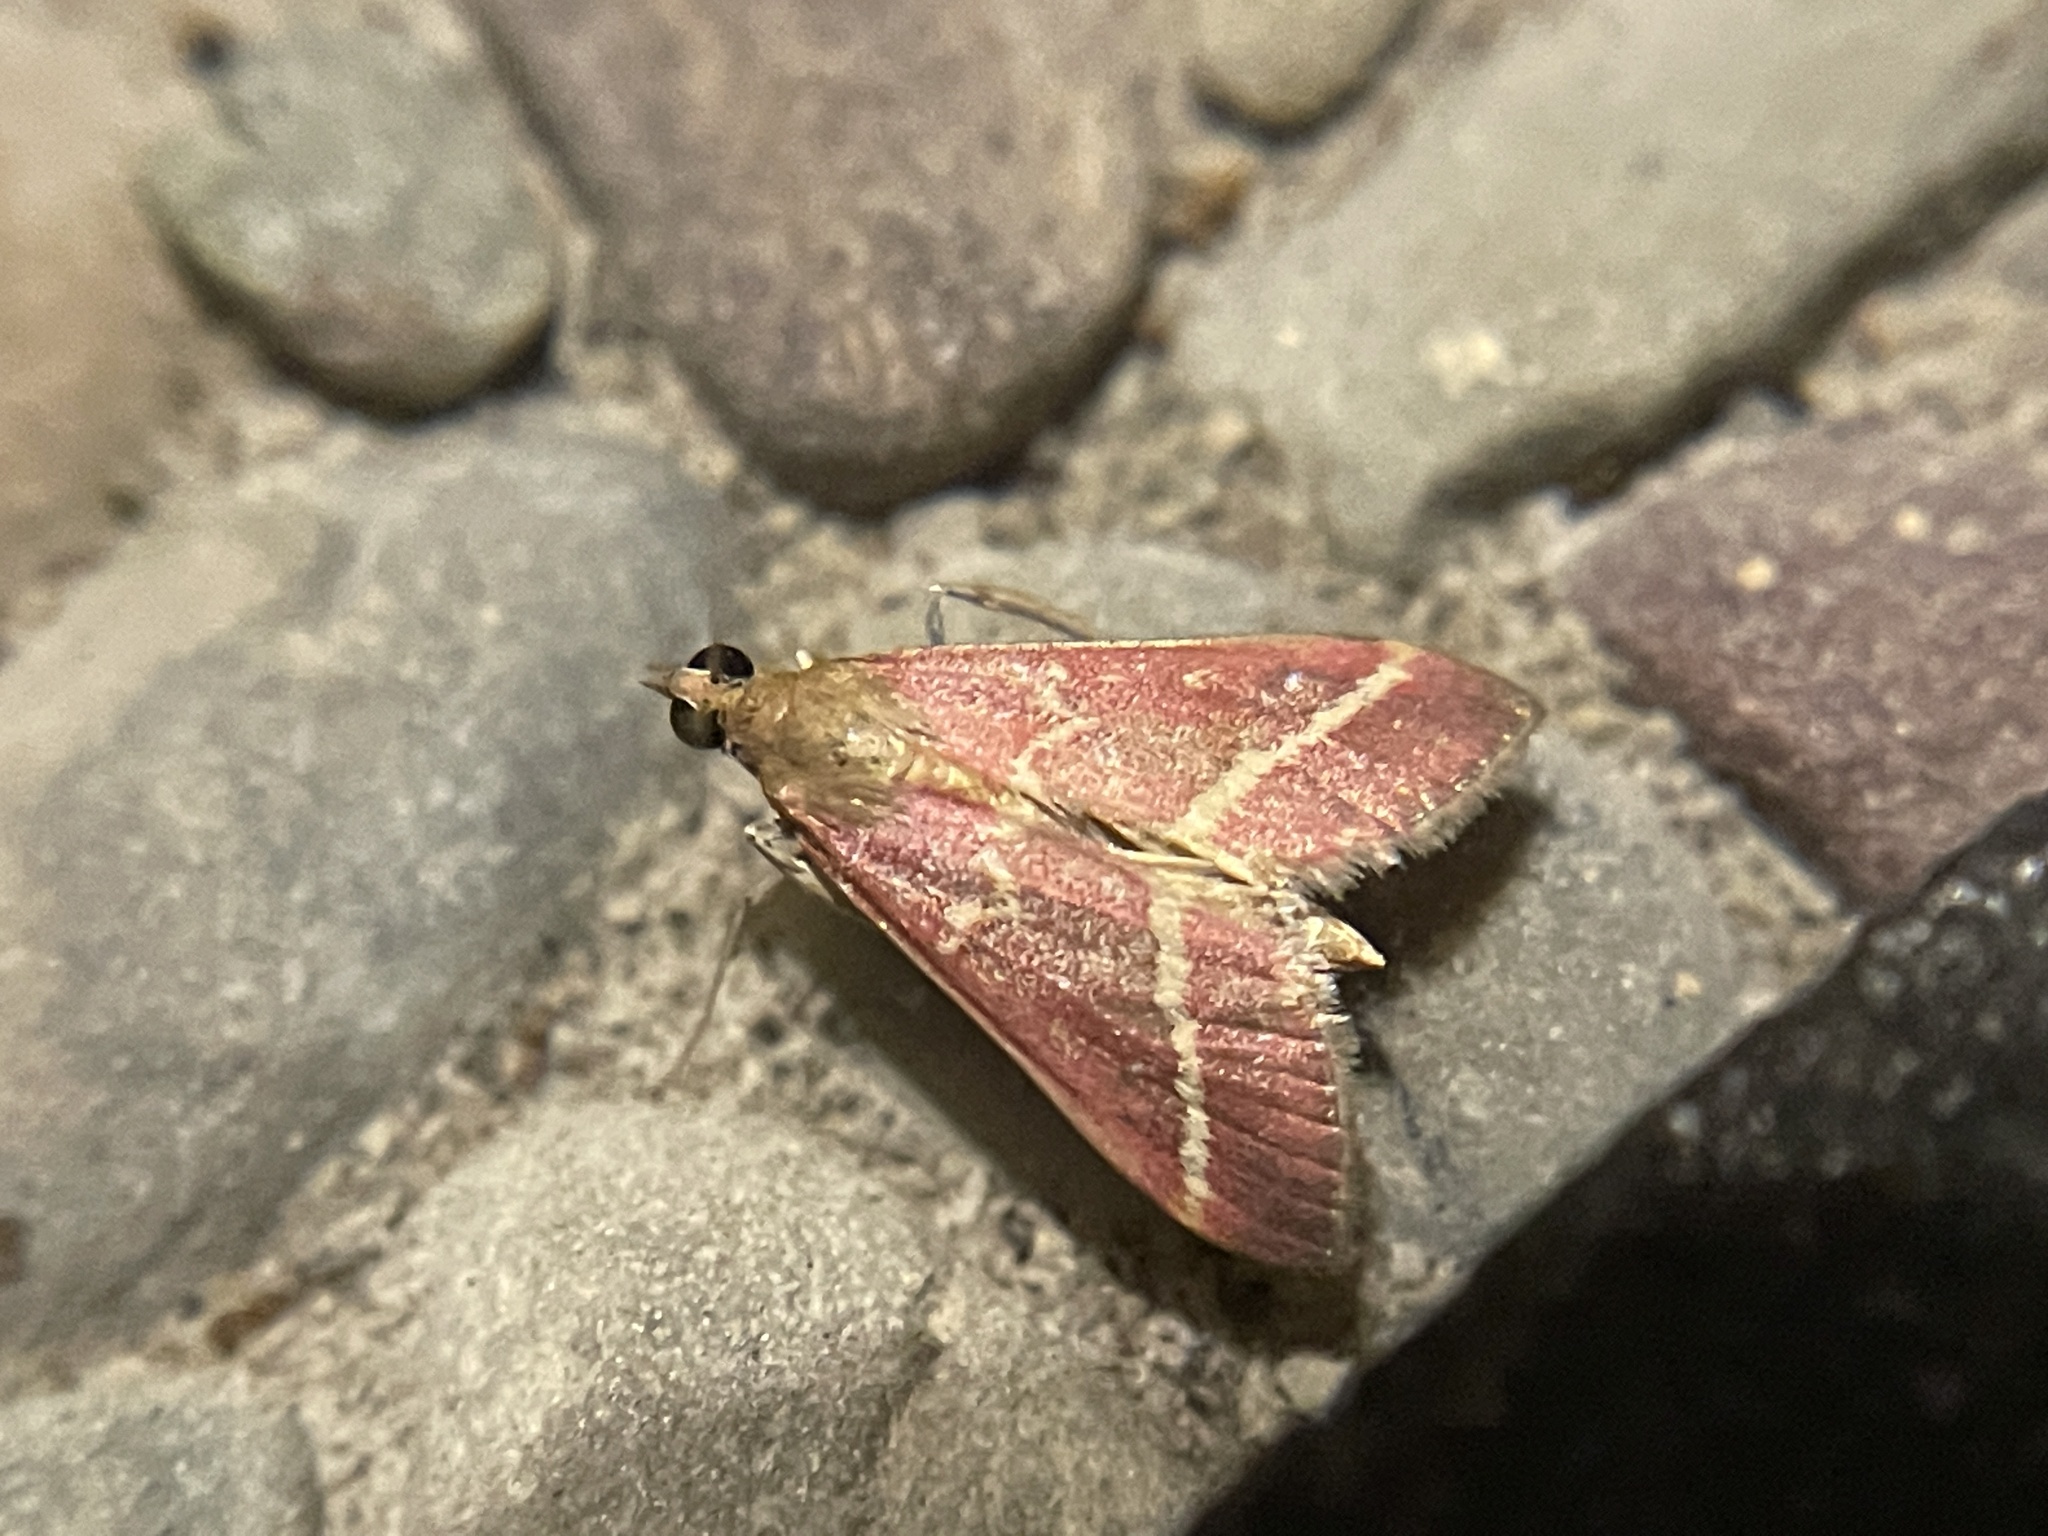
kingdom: Animalia
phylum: Arthropoda
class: Insecta
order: Lepidoptera
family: Crambidae
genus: Pyrausta
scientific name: Pyrausta volupialis
